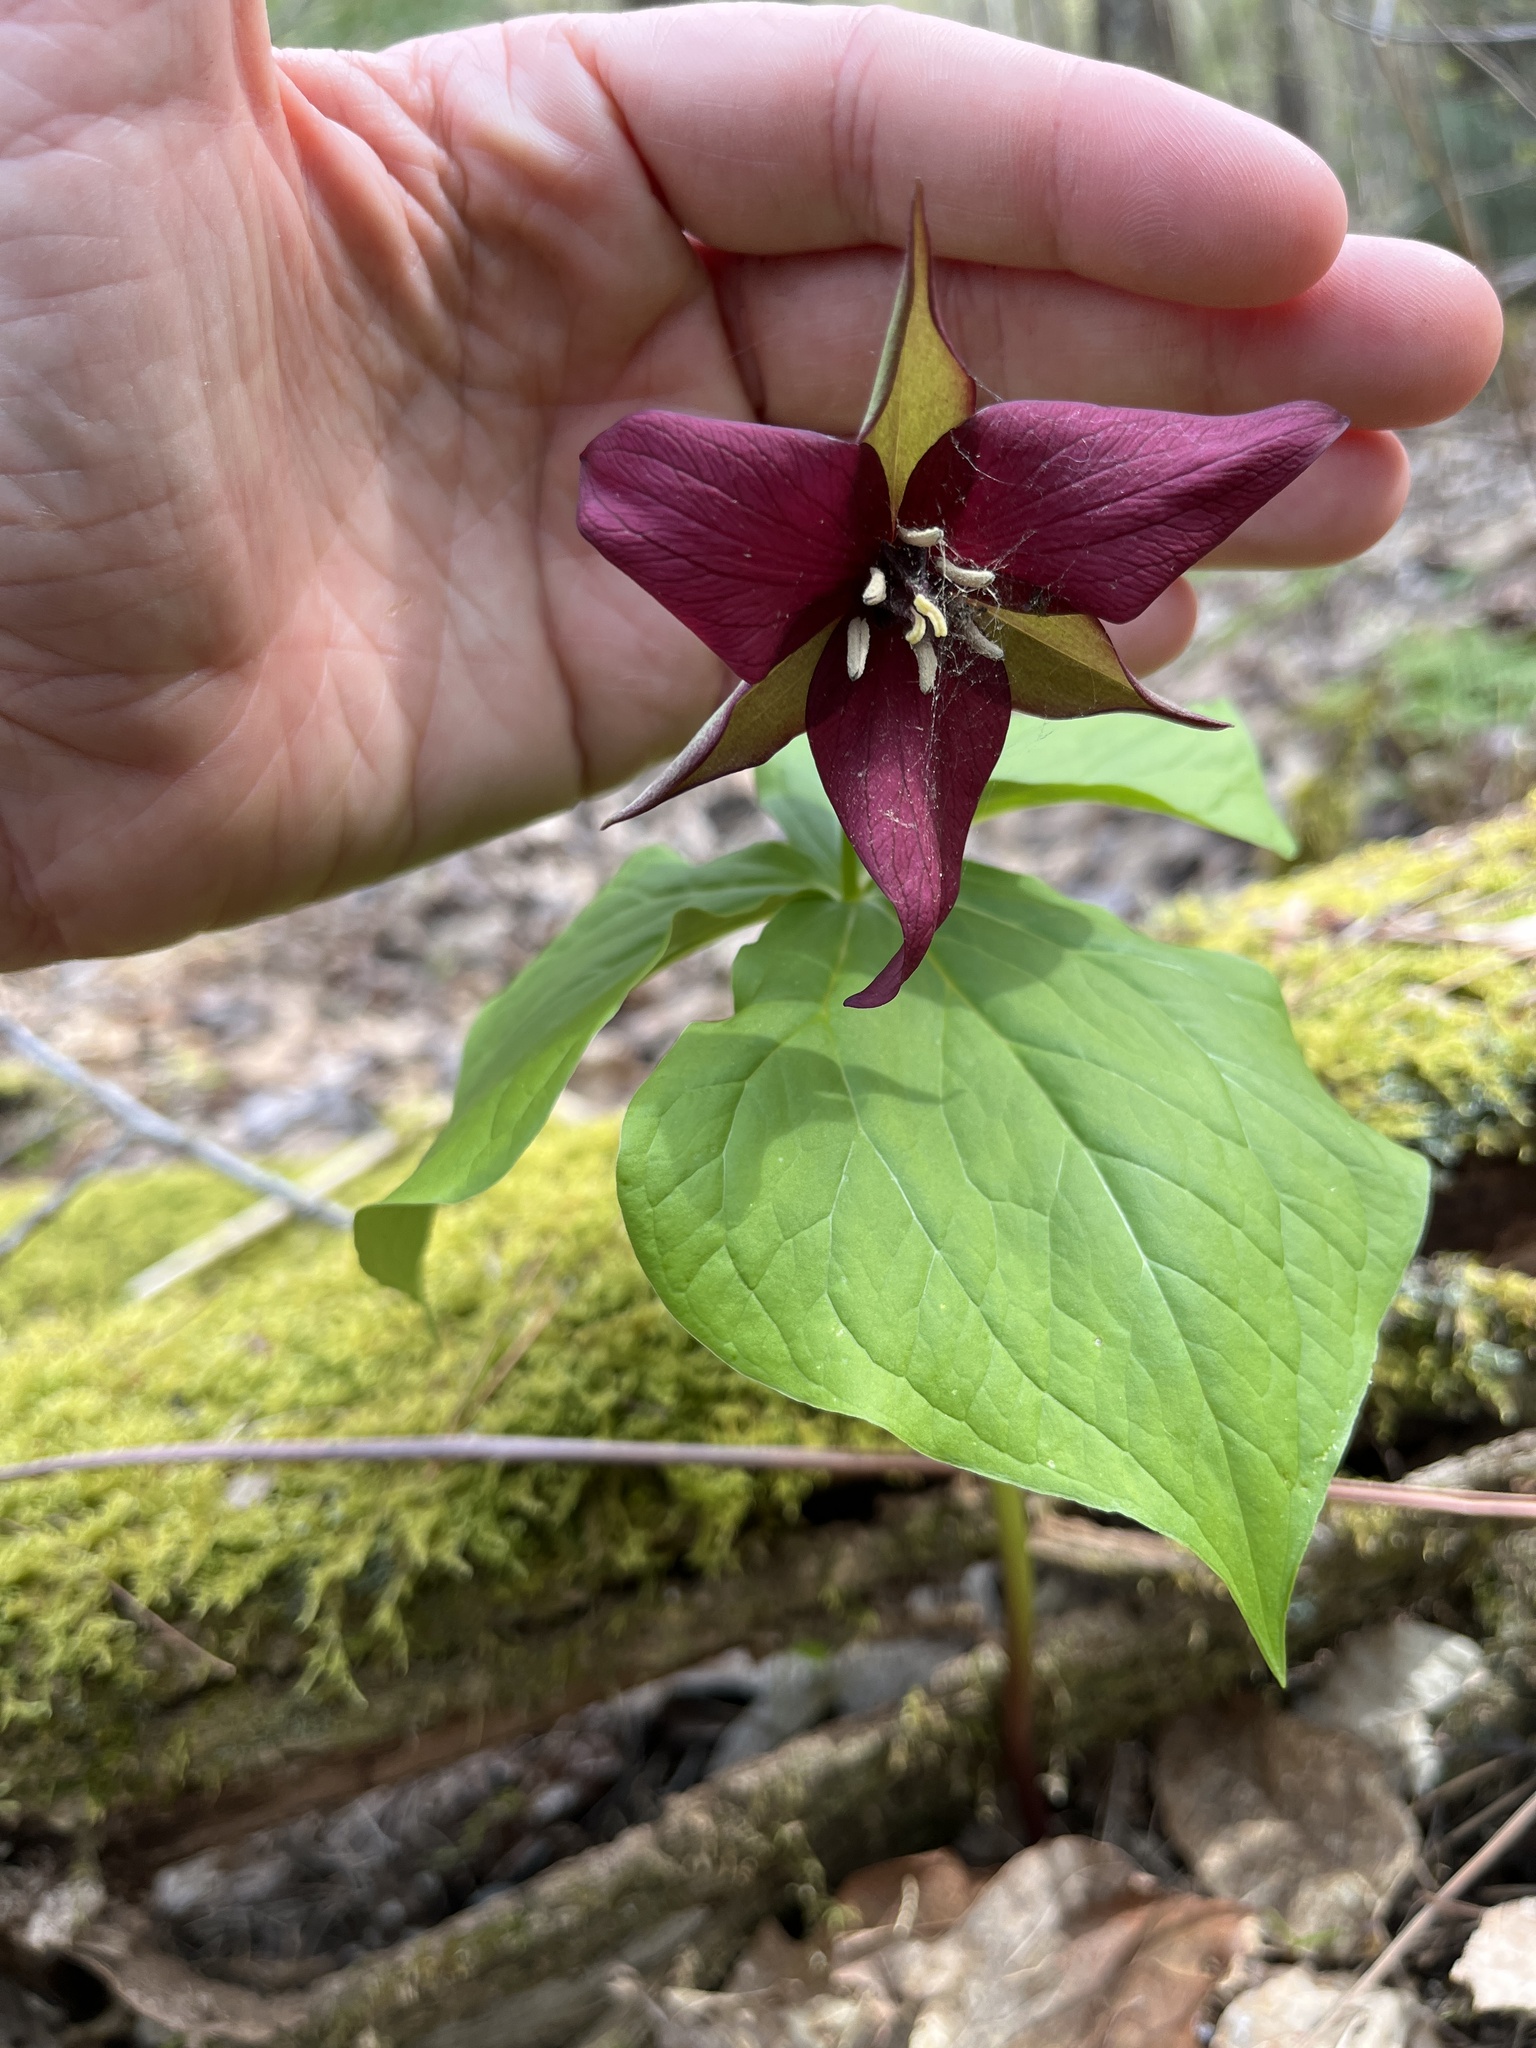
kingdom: Plantae
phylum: Tracheophyta
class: Liliopsida
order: Liliales
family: Melanthiaceae
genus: Trillium
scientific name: Trillium erectum
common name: Purple trillium
